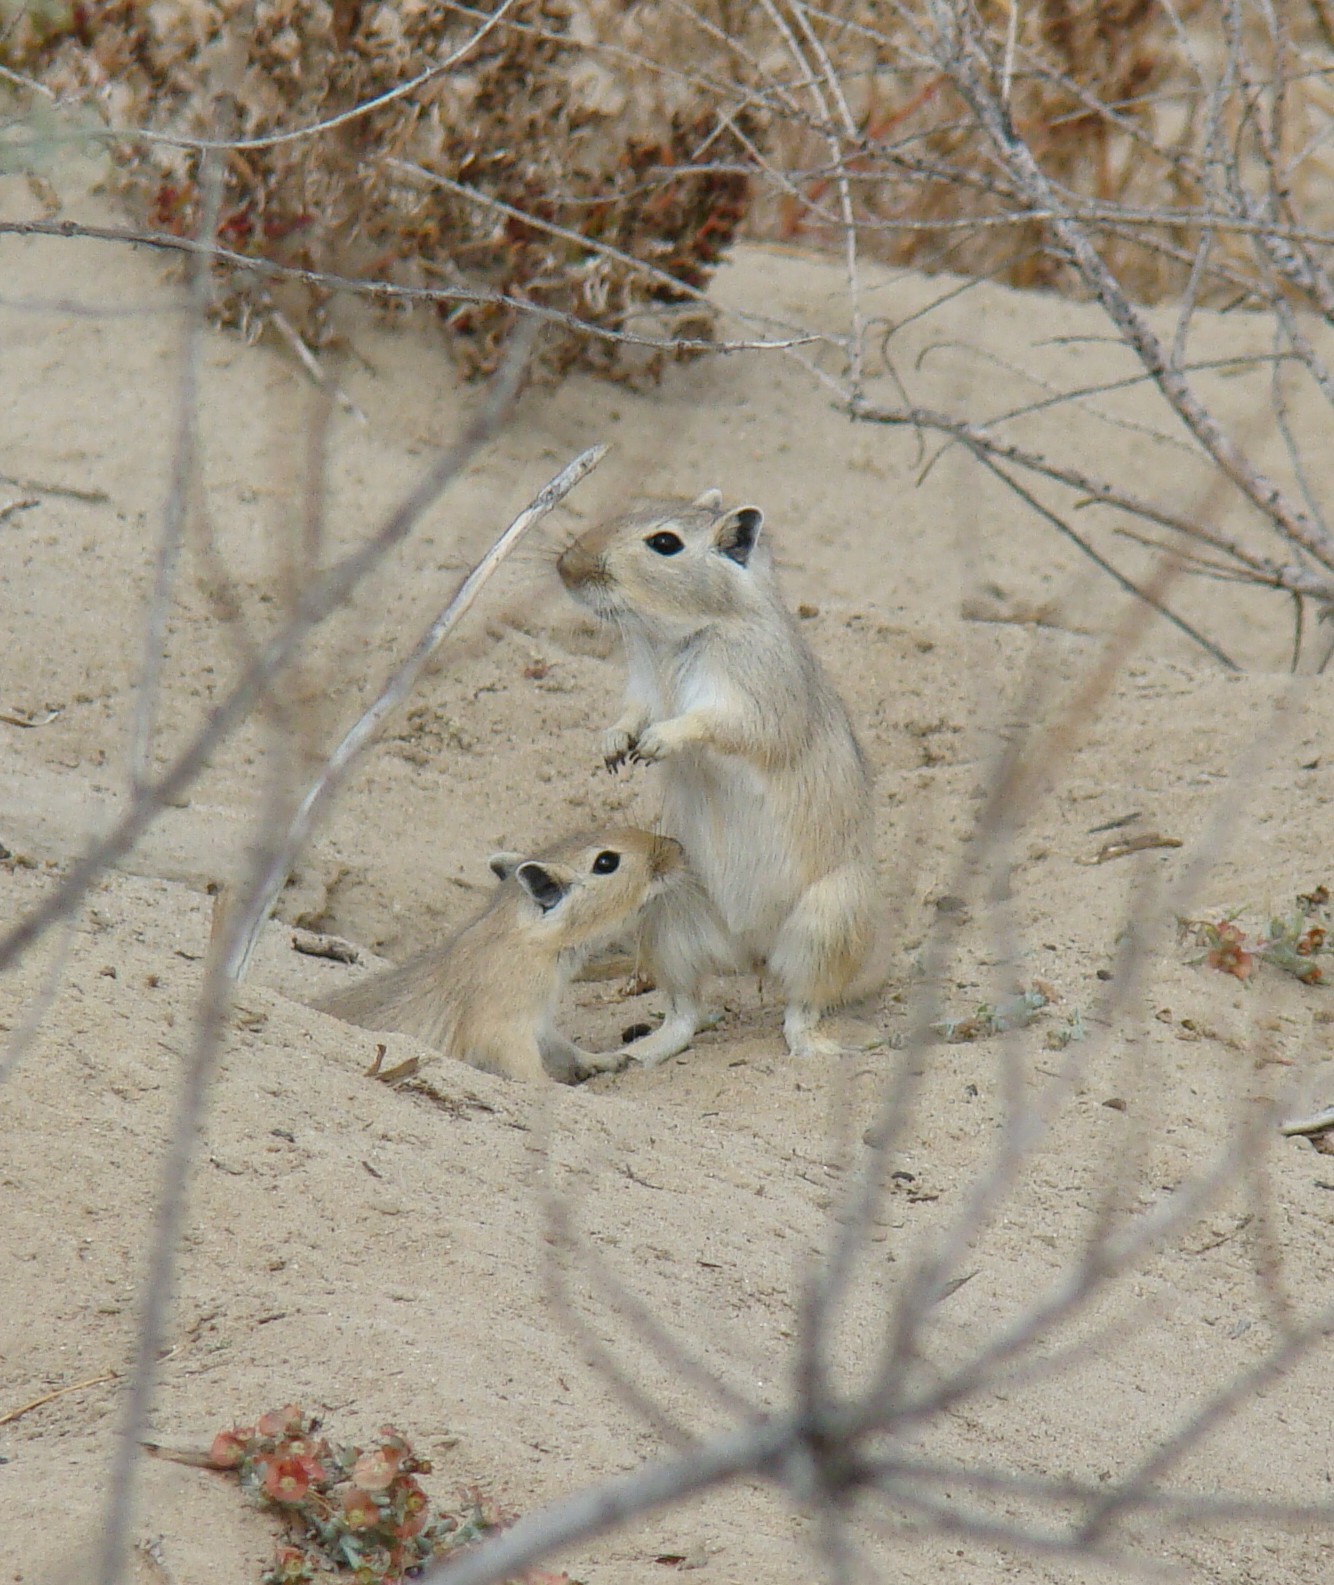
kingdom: Animalia
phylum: Chordata
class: Mammalia
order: Rodentia
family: Muridae
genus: Rhombomys
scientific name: Rhombomys opimus
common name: Great gerbil
